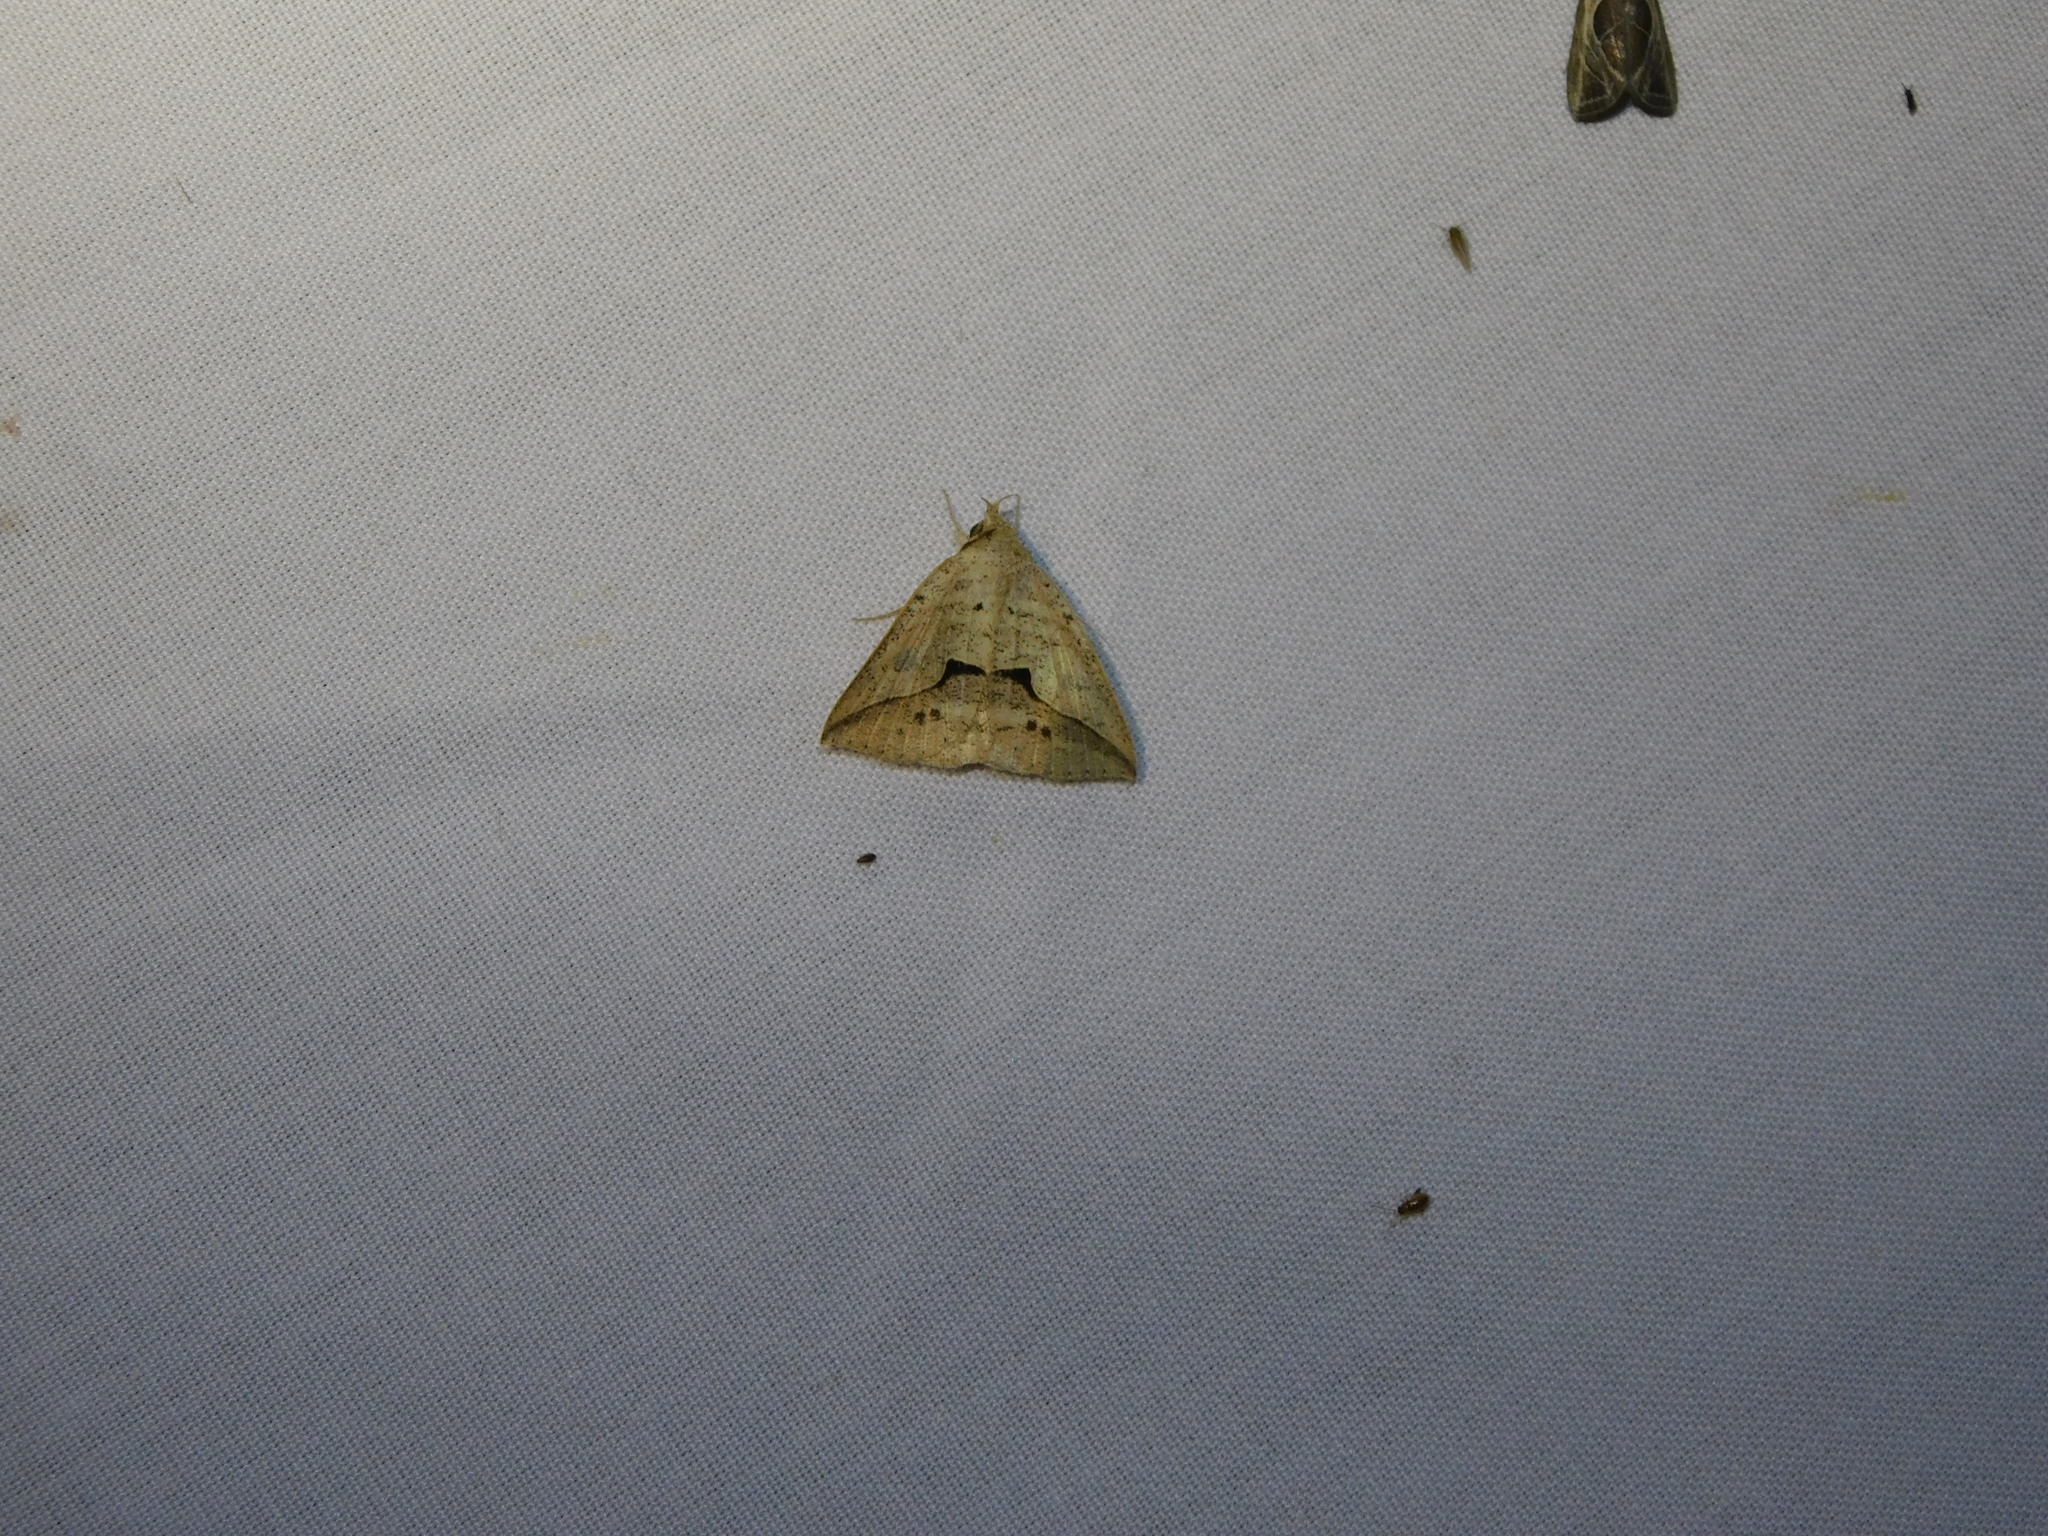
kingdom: Animalia
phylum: Arthropoda
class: Insecta
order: Lepidoptera
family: Erebidae
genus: Dierna
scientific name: Dierna patibulum
